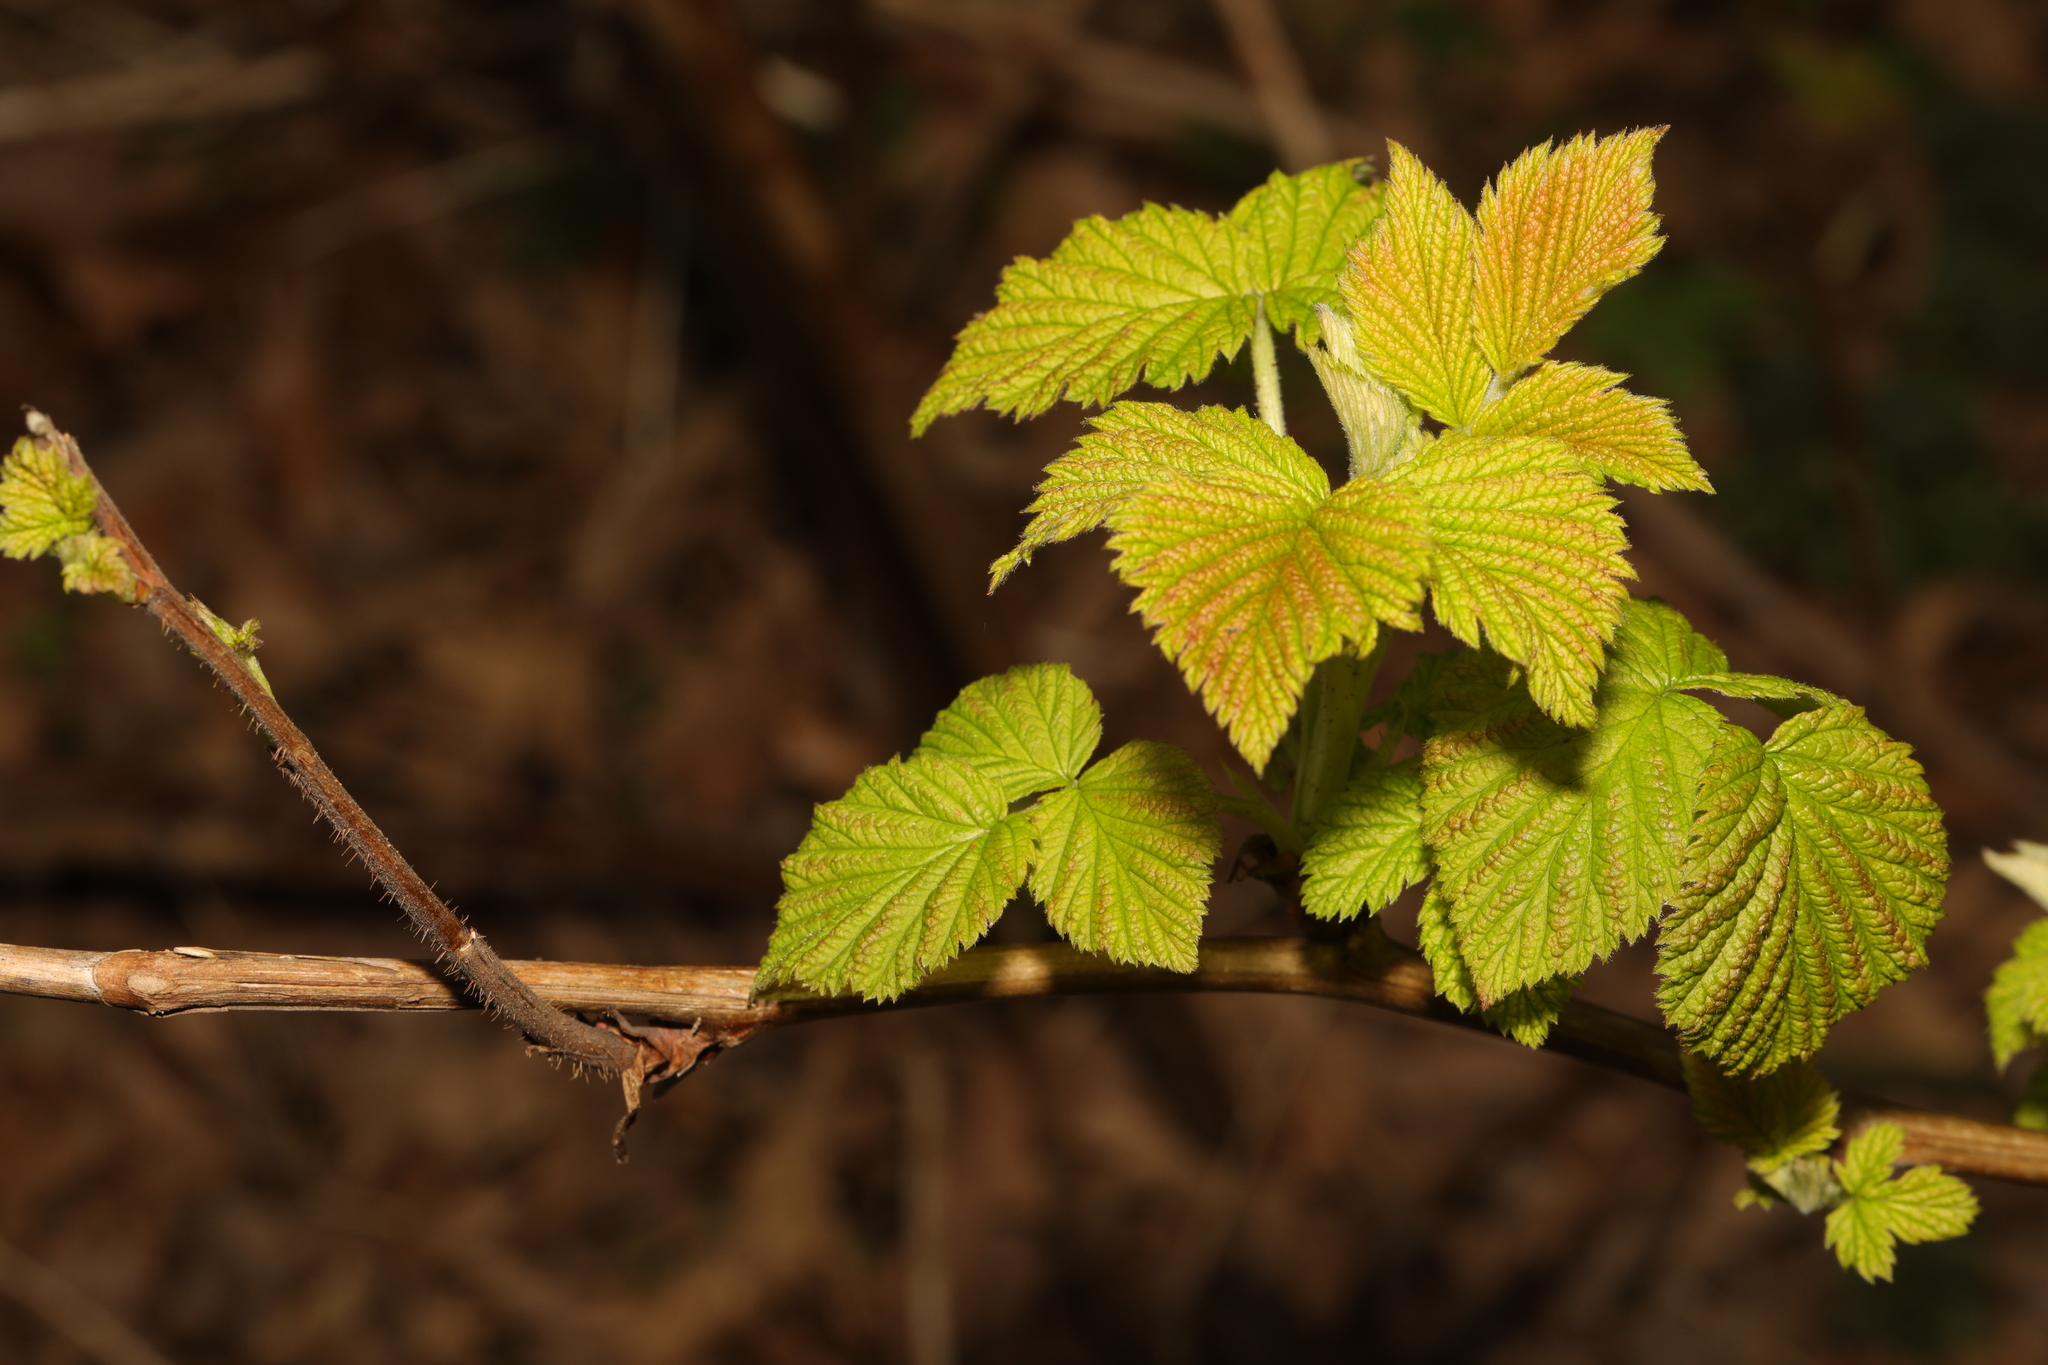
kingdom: Plantae
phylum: Tracheophyta
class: Magnoliopsida
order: Rosales
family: Rosaceae
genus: Rubus
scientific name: Rubus idaeus
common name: Raspberry
